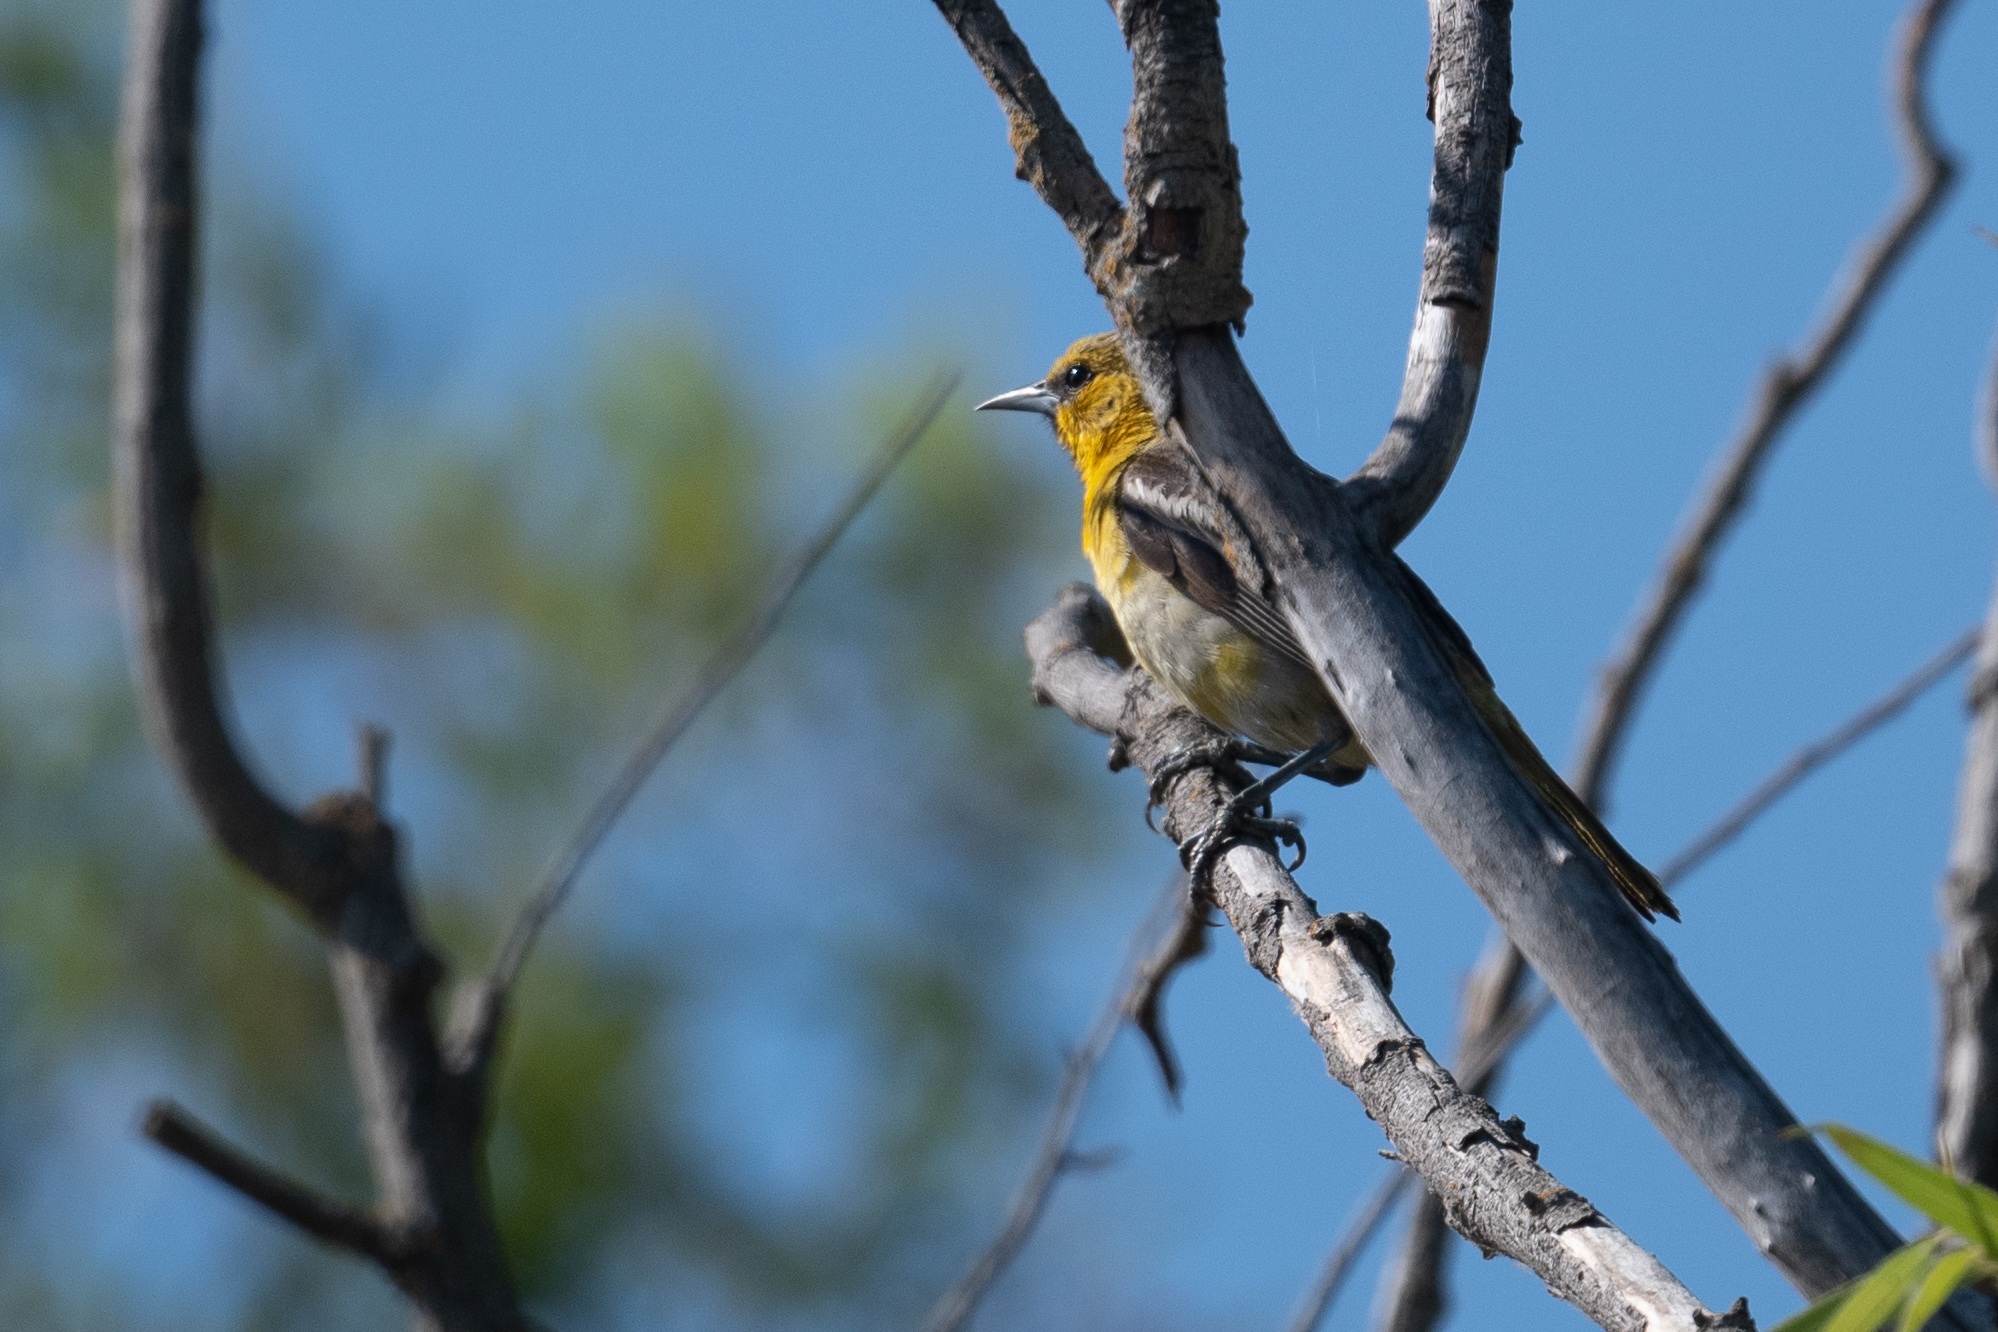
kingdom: Animalia
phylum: Chordata
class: Aves
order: Passeriformes
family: Icteridae
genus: Icterus
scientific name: Icterus bullockii
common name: Bullock's oriole
